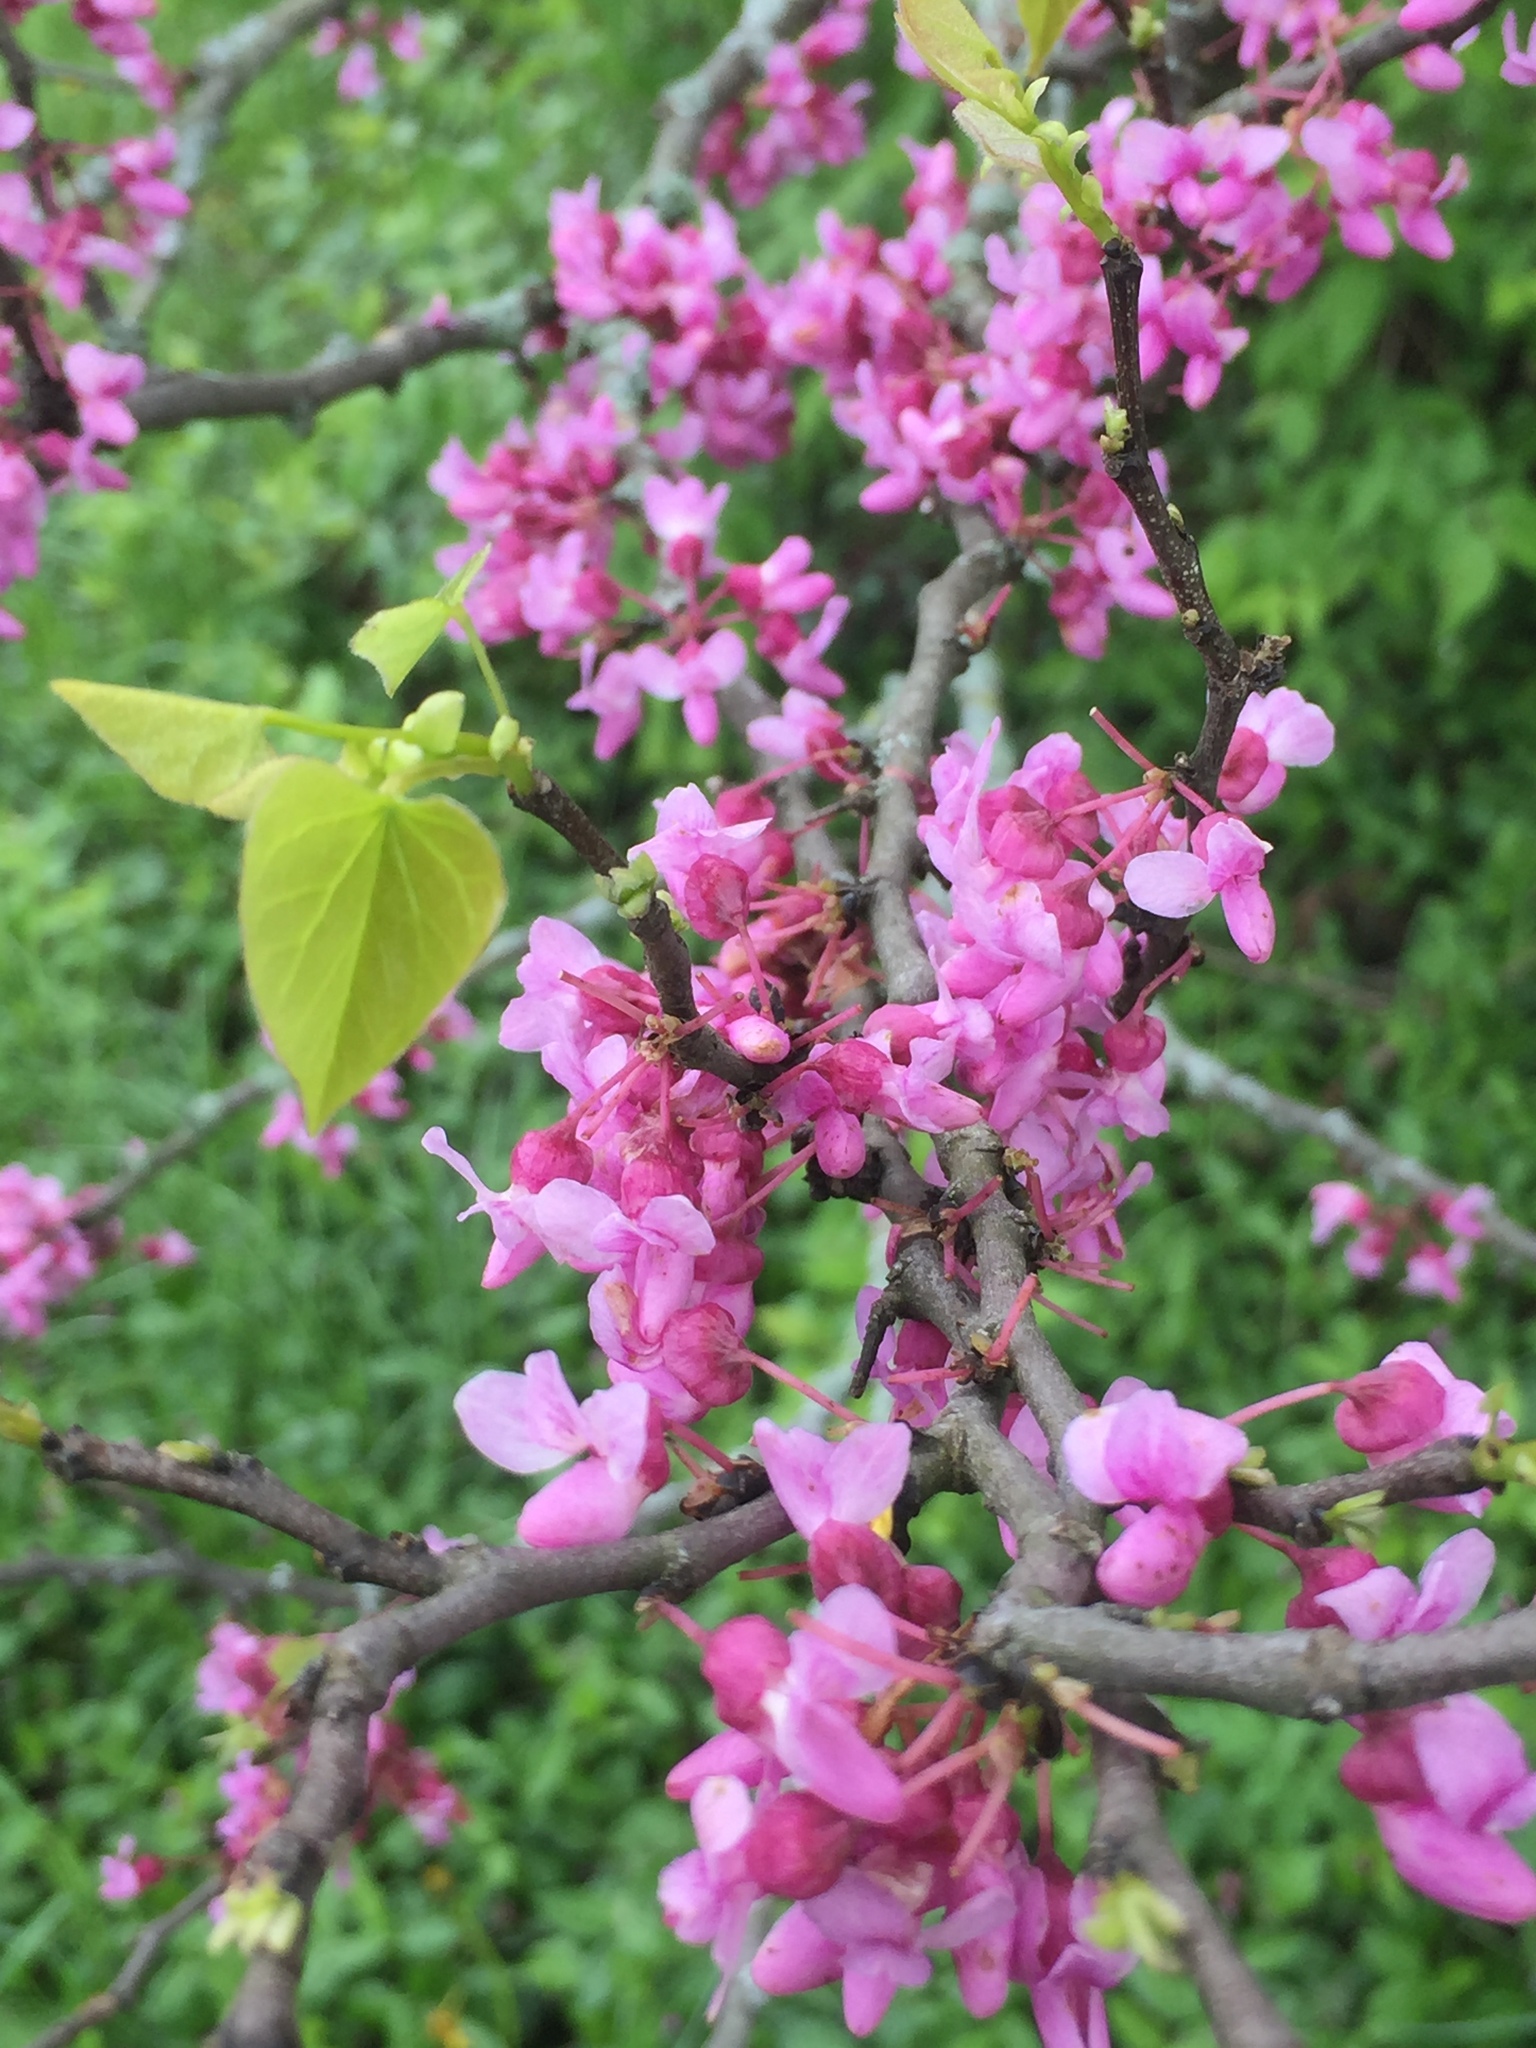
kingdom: Plantae
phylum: Tracheophyta
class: Magnoliopsida
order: Fabales
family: Fabaceae
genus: Cercis
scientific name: Cercis canadensis
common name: Eastern redbud
